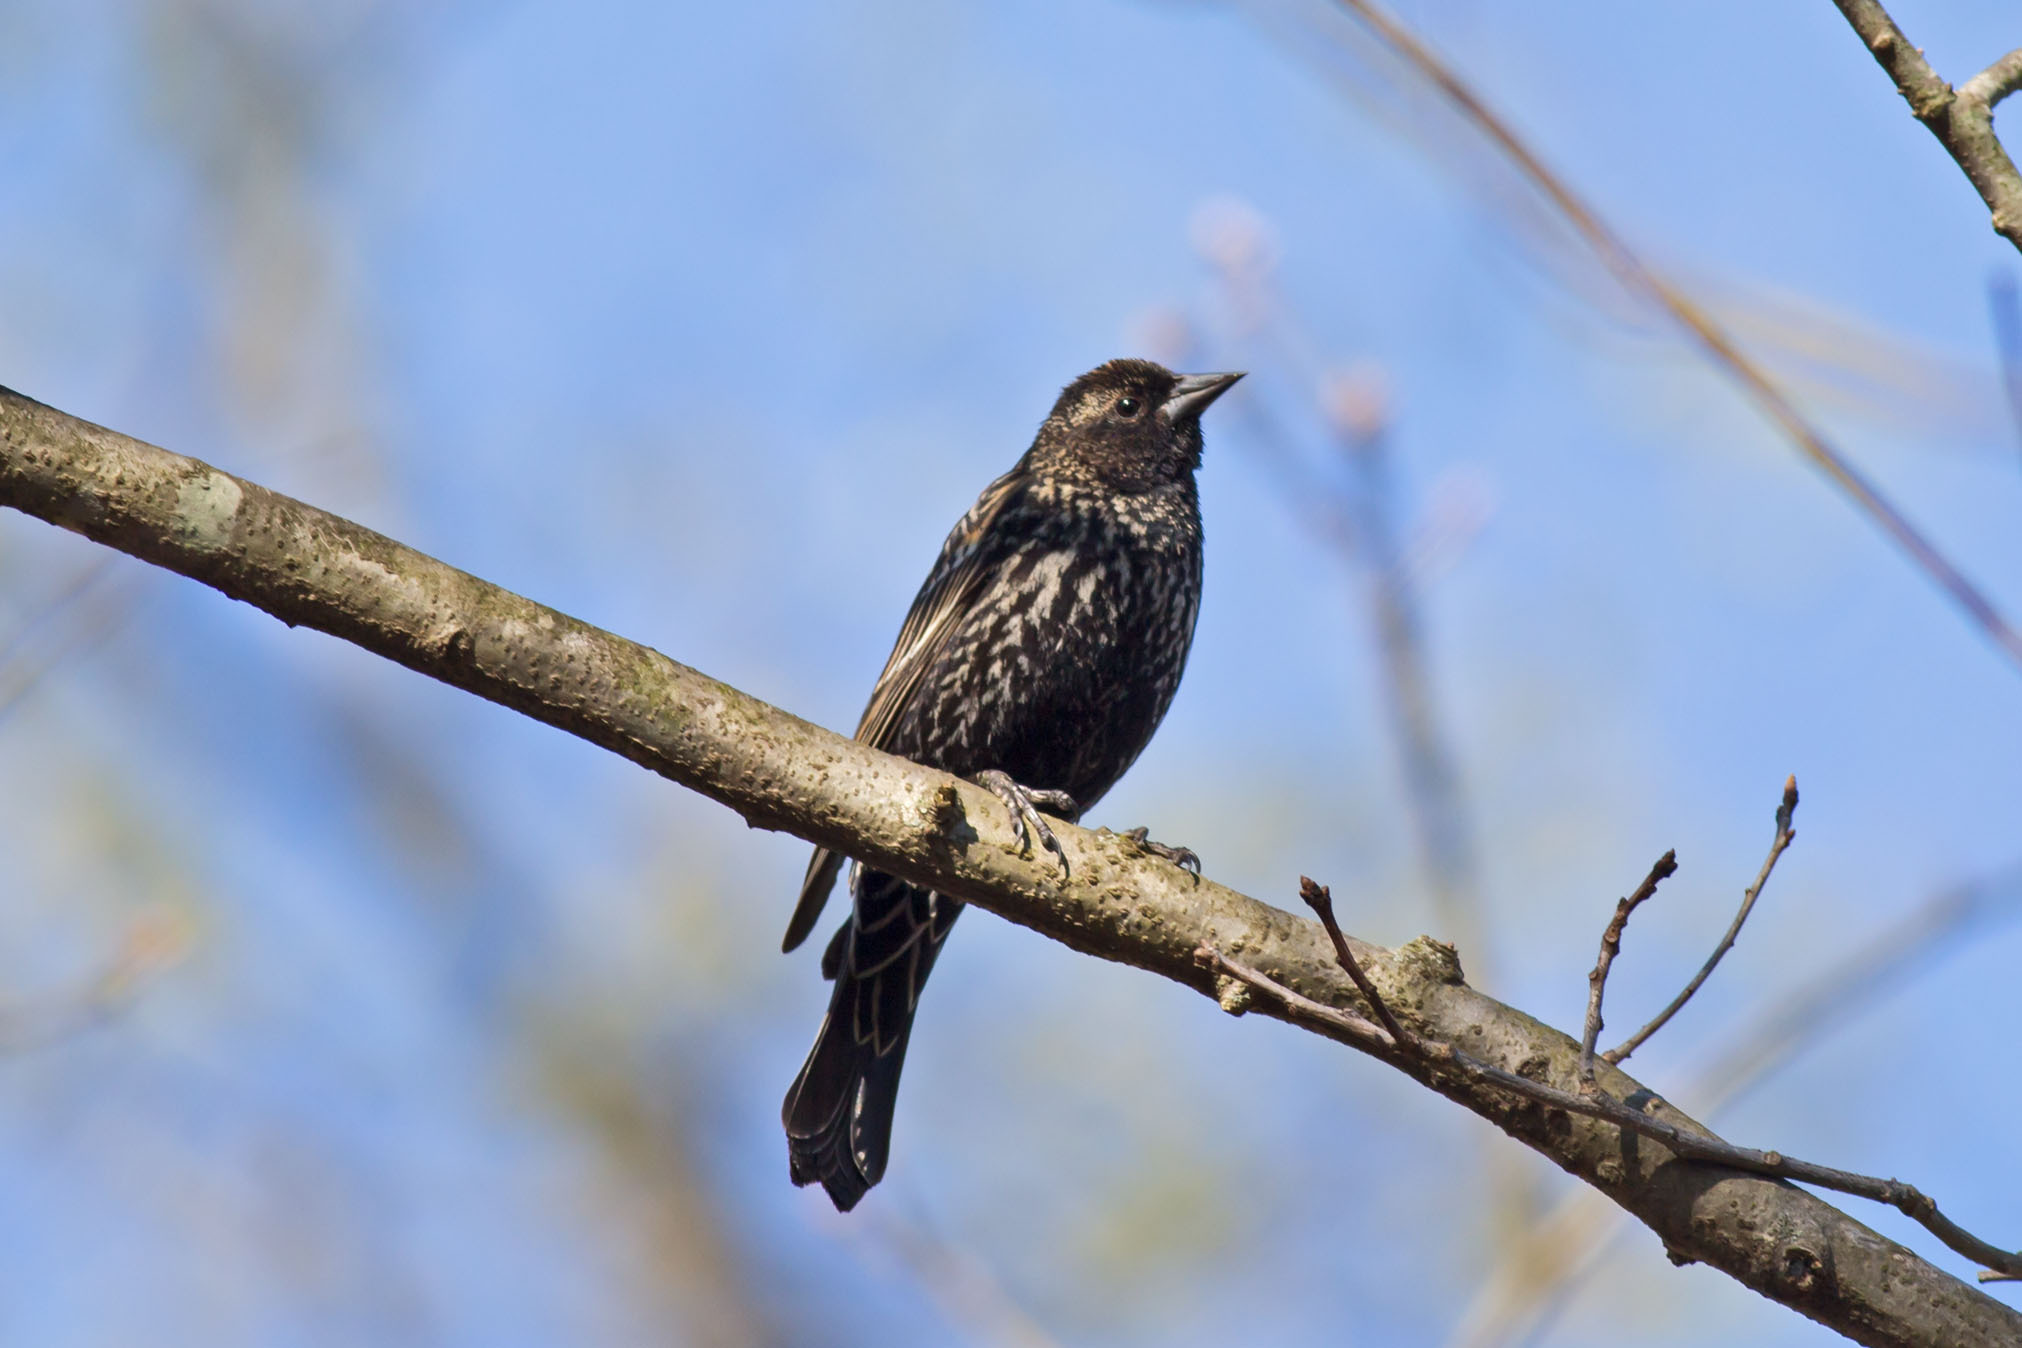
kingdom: Animalia
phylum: Chordata
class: Aves
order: Passeriformes
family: Icteridae
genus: Agelaius
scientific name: Agelaius phoeniceus
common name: Red-winged blackbird
